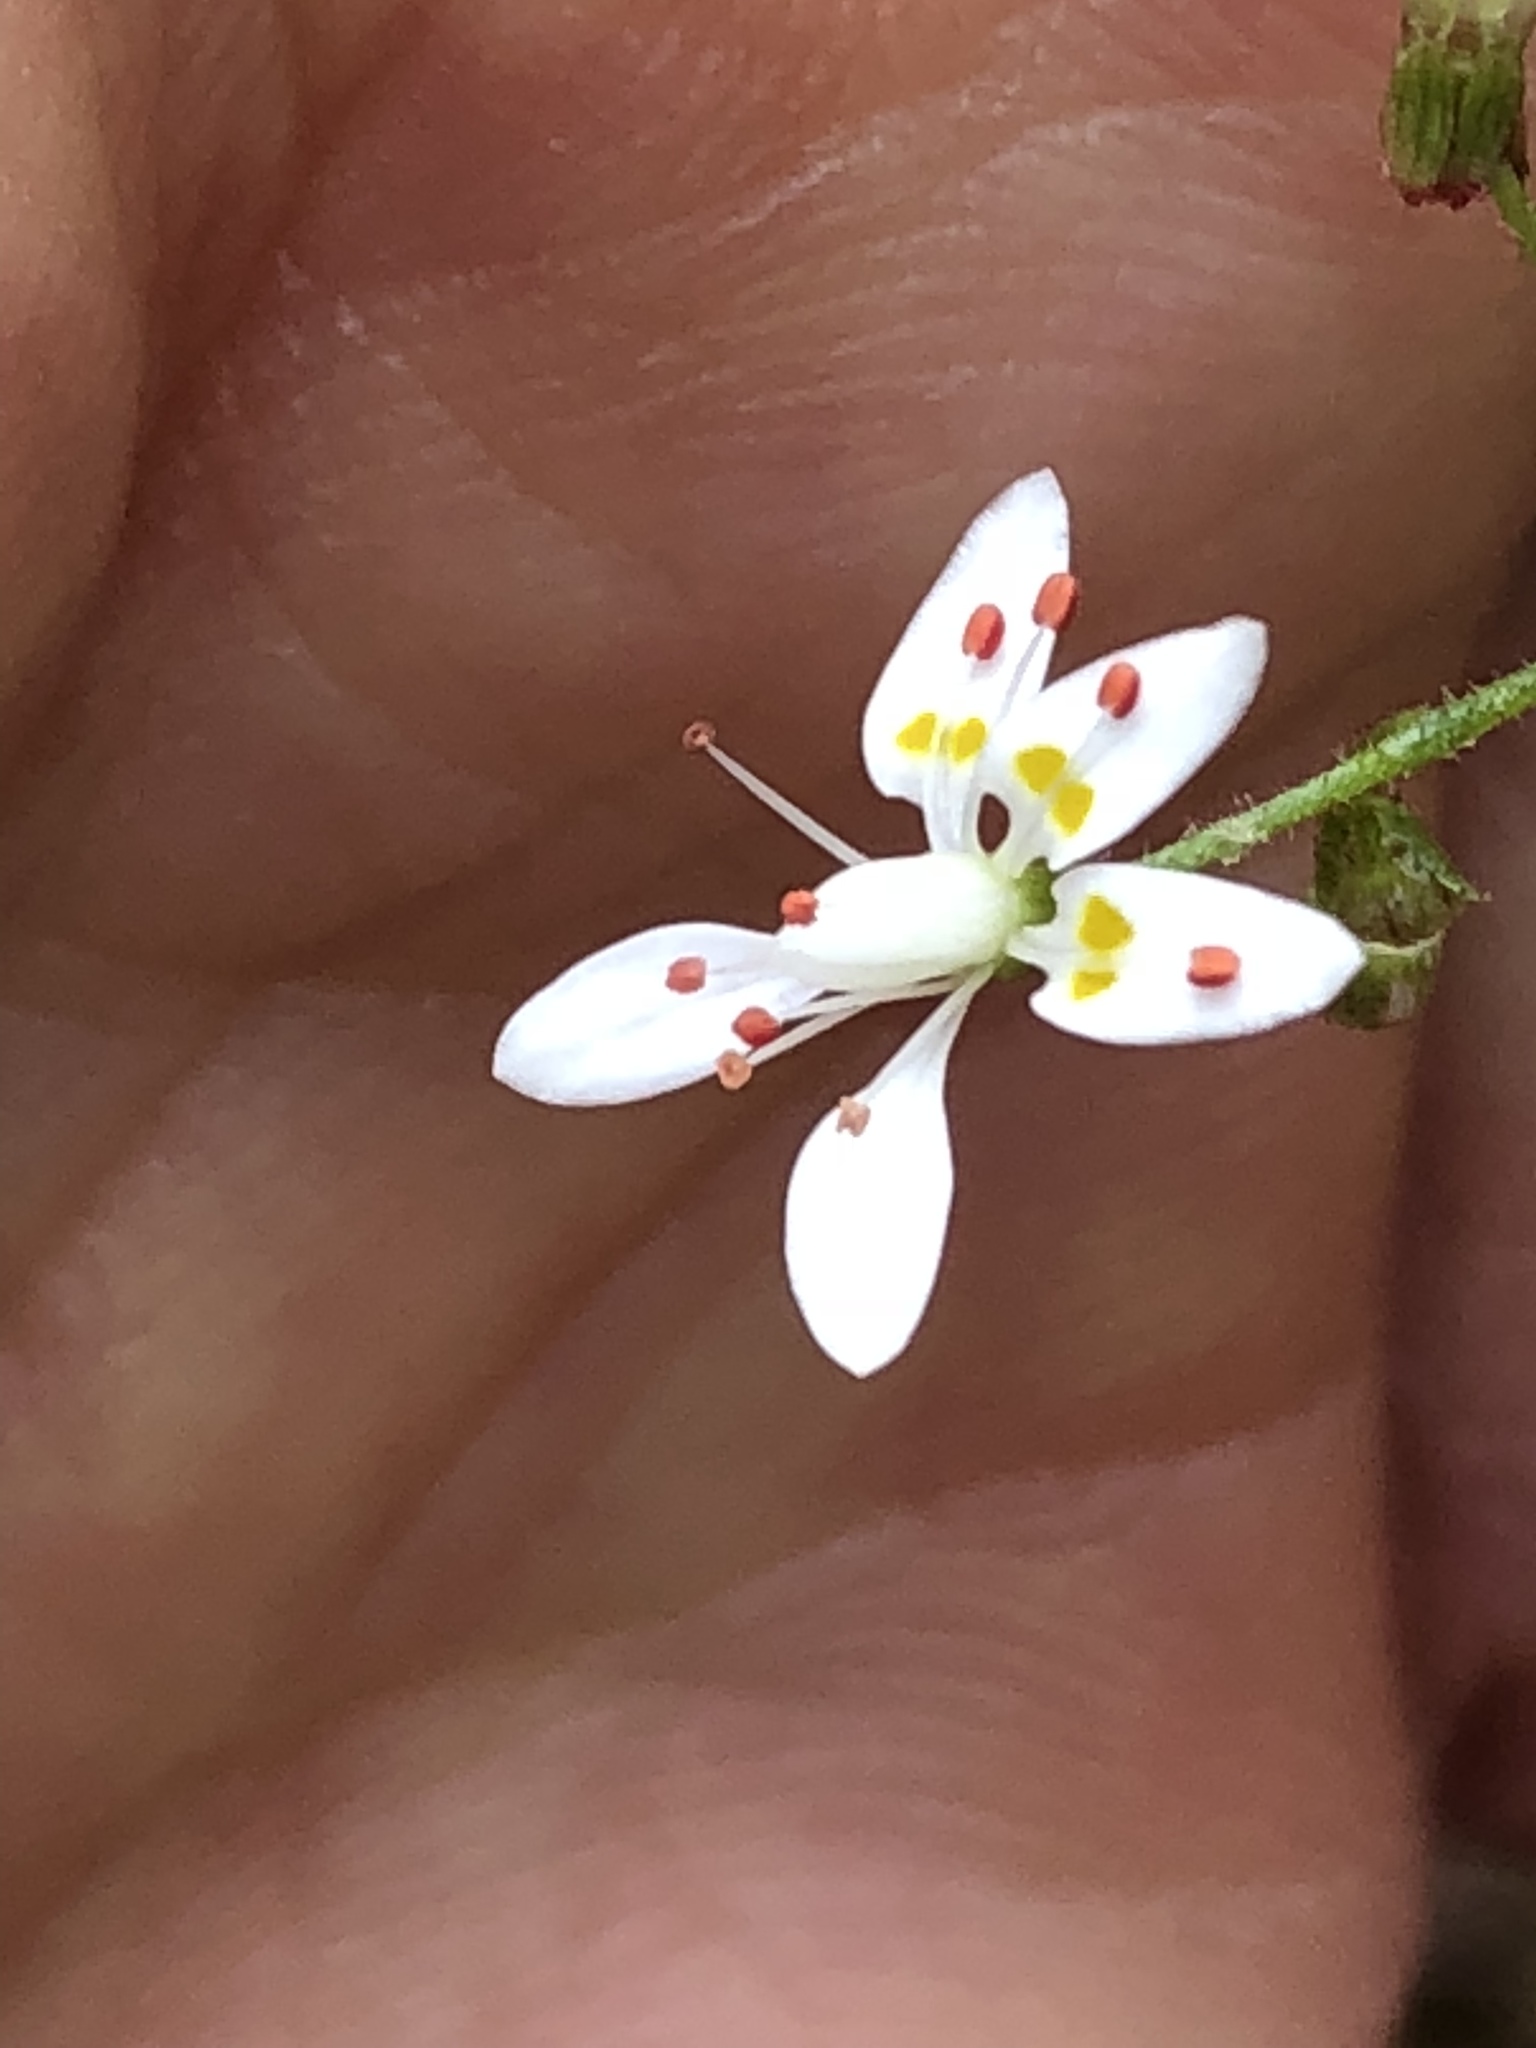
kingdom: Plantae
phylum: Tracheophyta
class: Magnoliopsida
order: Saxifragales
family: Saxifragaceae
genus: Micranthes
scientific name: Micranthes petiolaris
